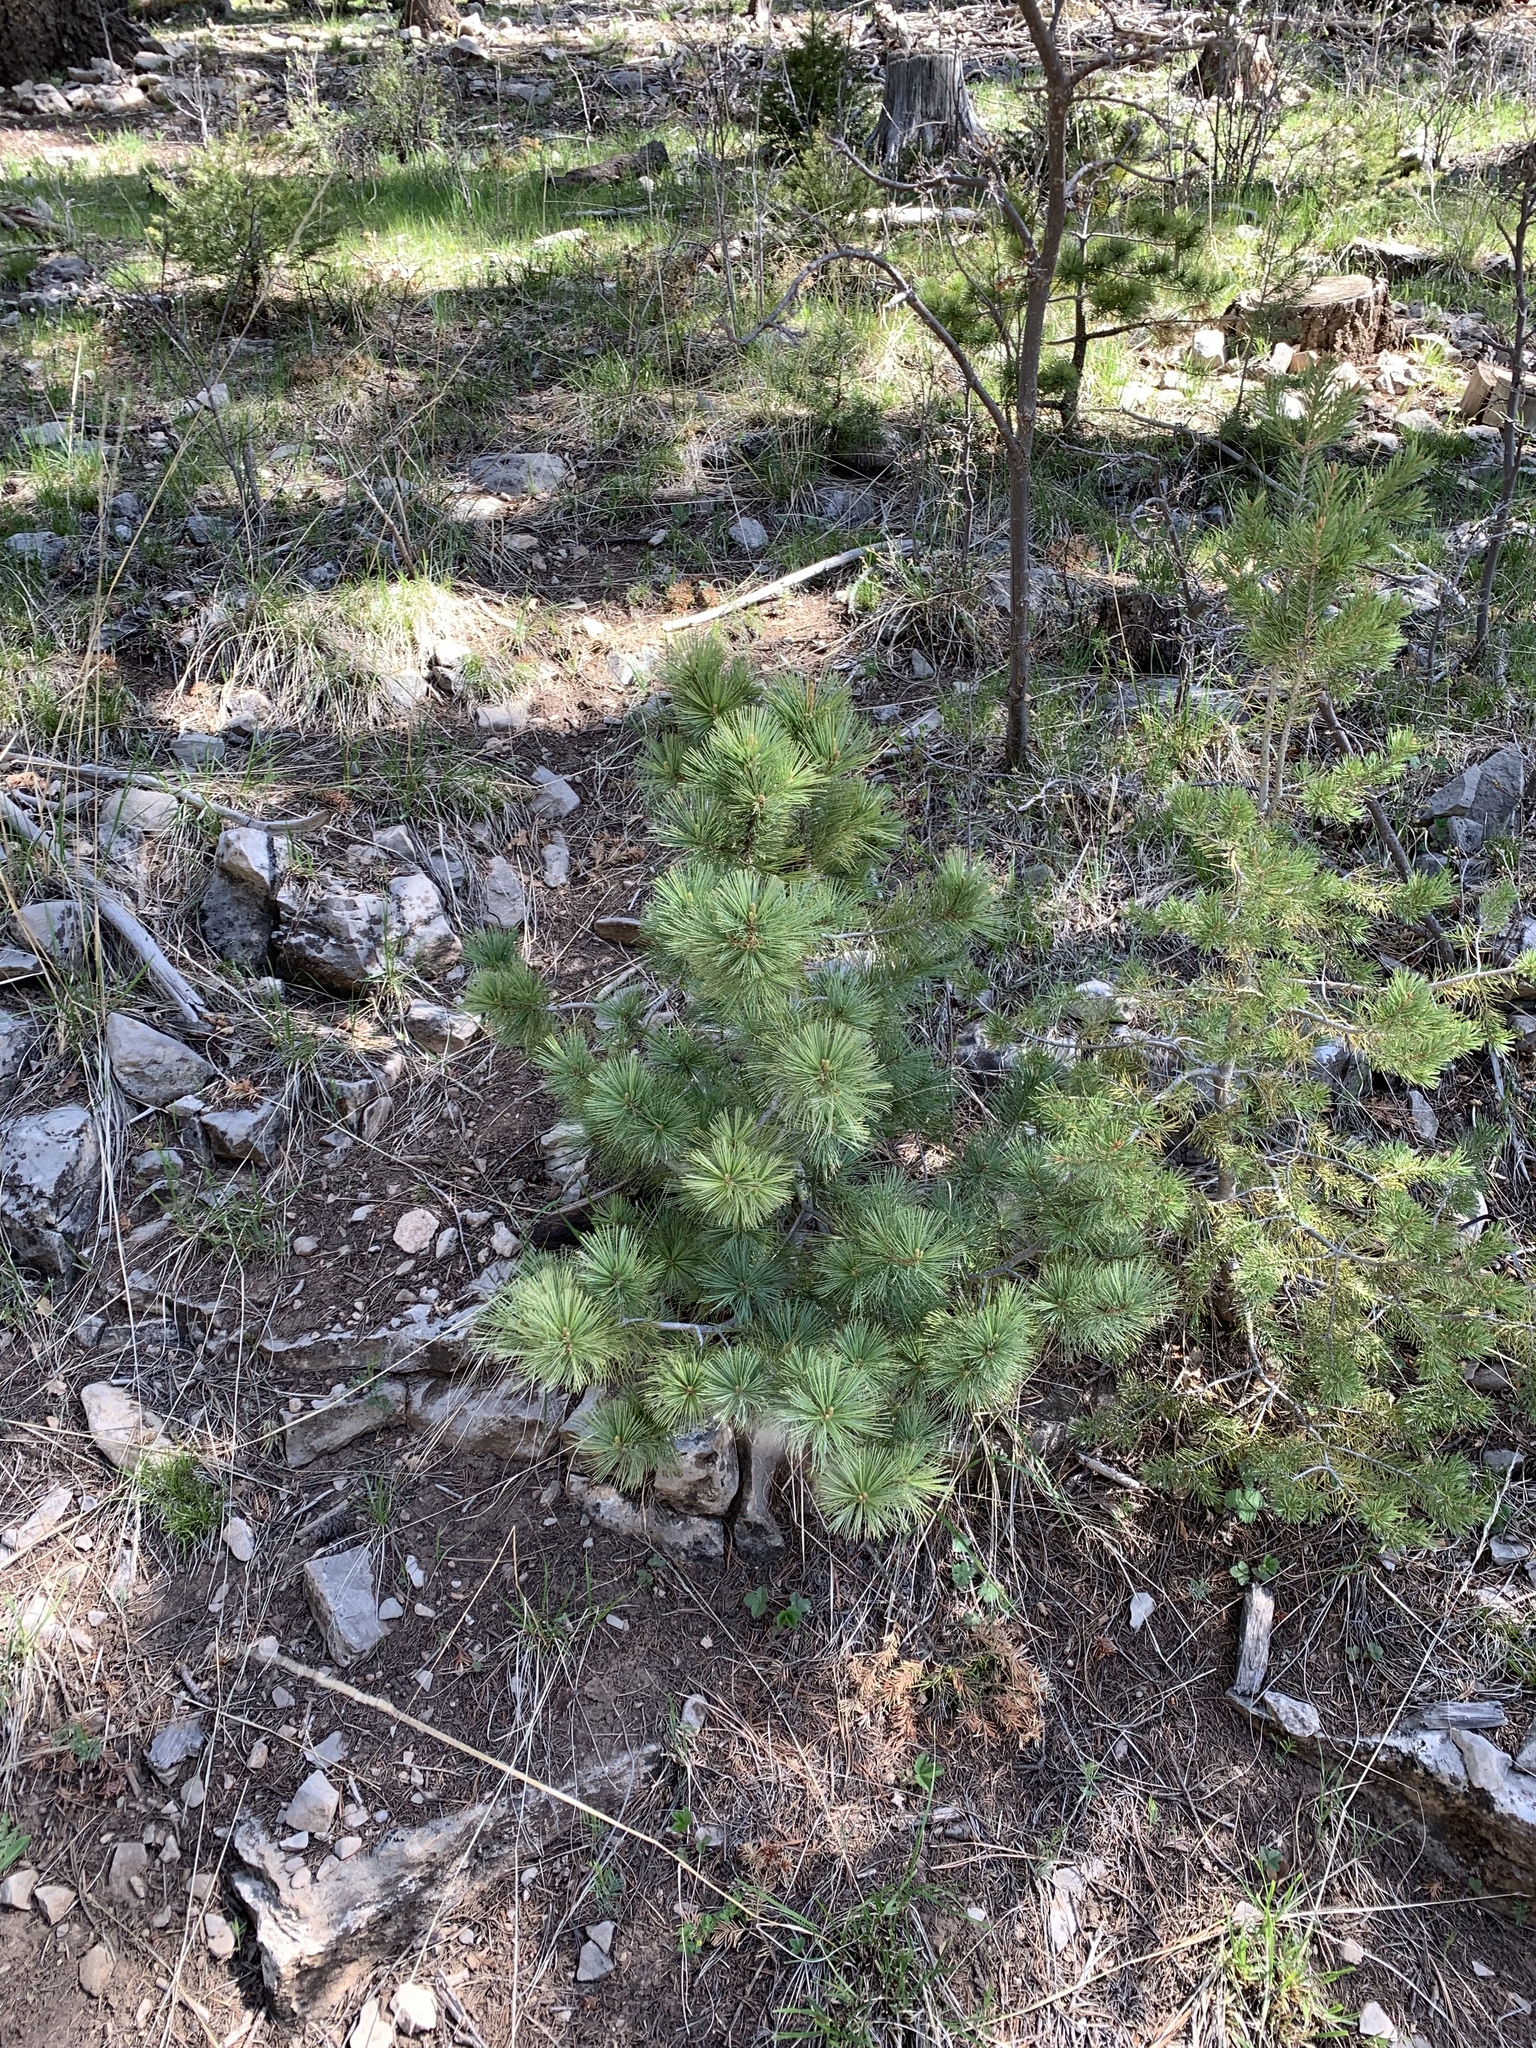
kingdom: Plantae
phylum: Tracheophyta
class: Pinopsida
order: Pinales
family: Pinaceae
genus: Pinus
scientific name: Pinus strobiformis
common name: Southwestern white pine
